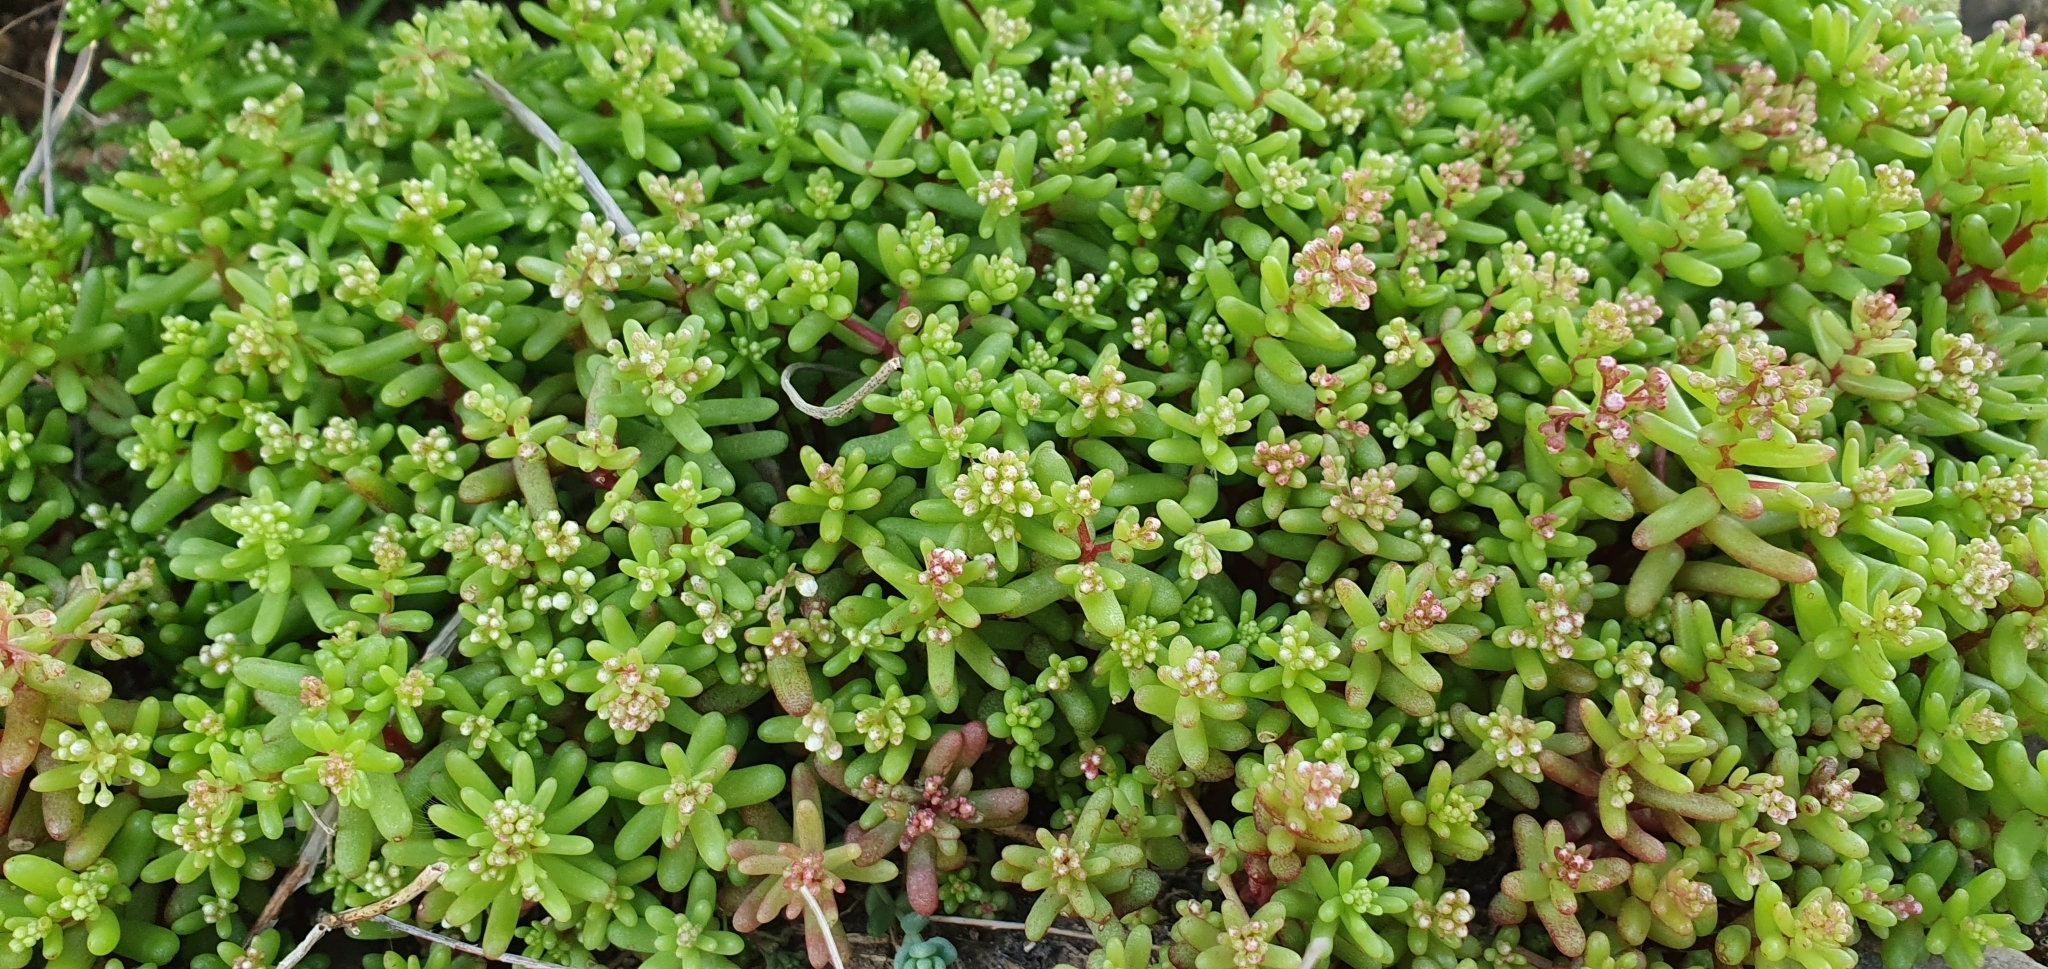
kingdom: Plantae
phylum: Tracheophyta
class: Magnoliopsida
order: Saxifragales
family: Crassulaceae
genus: Sedum
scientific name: Sedum caeruleum
